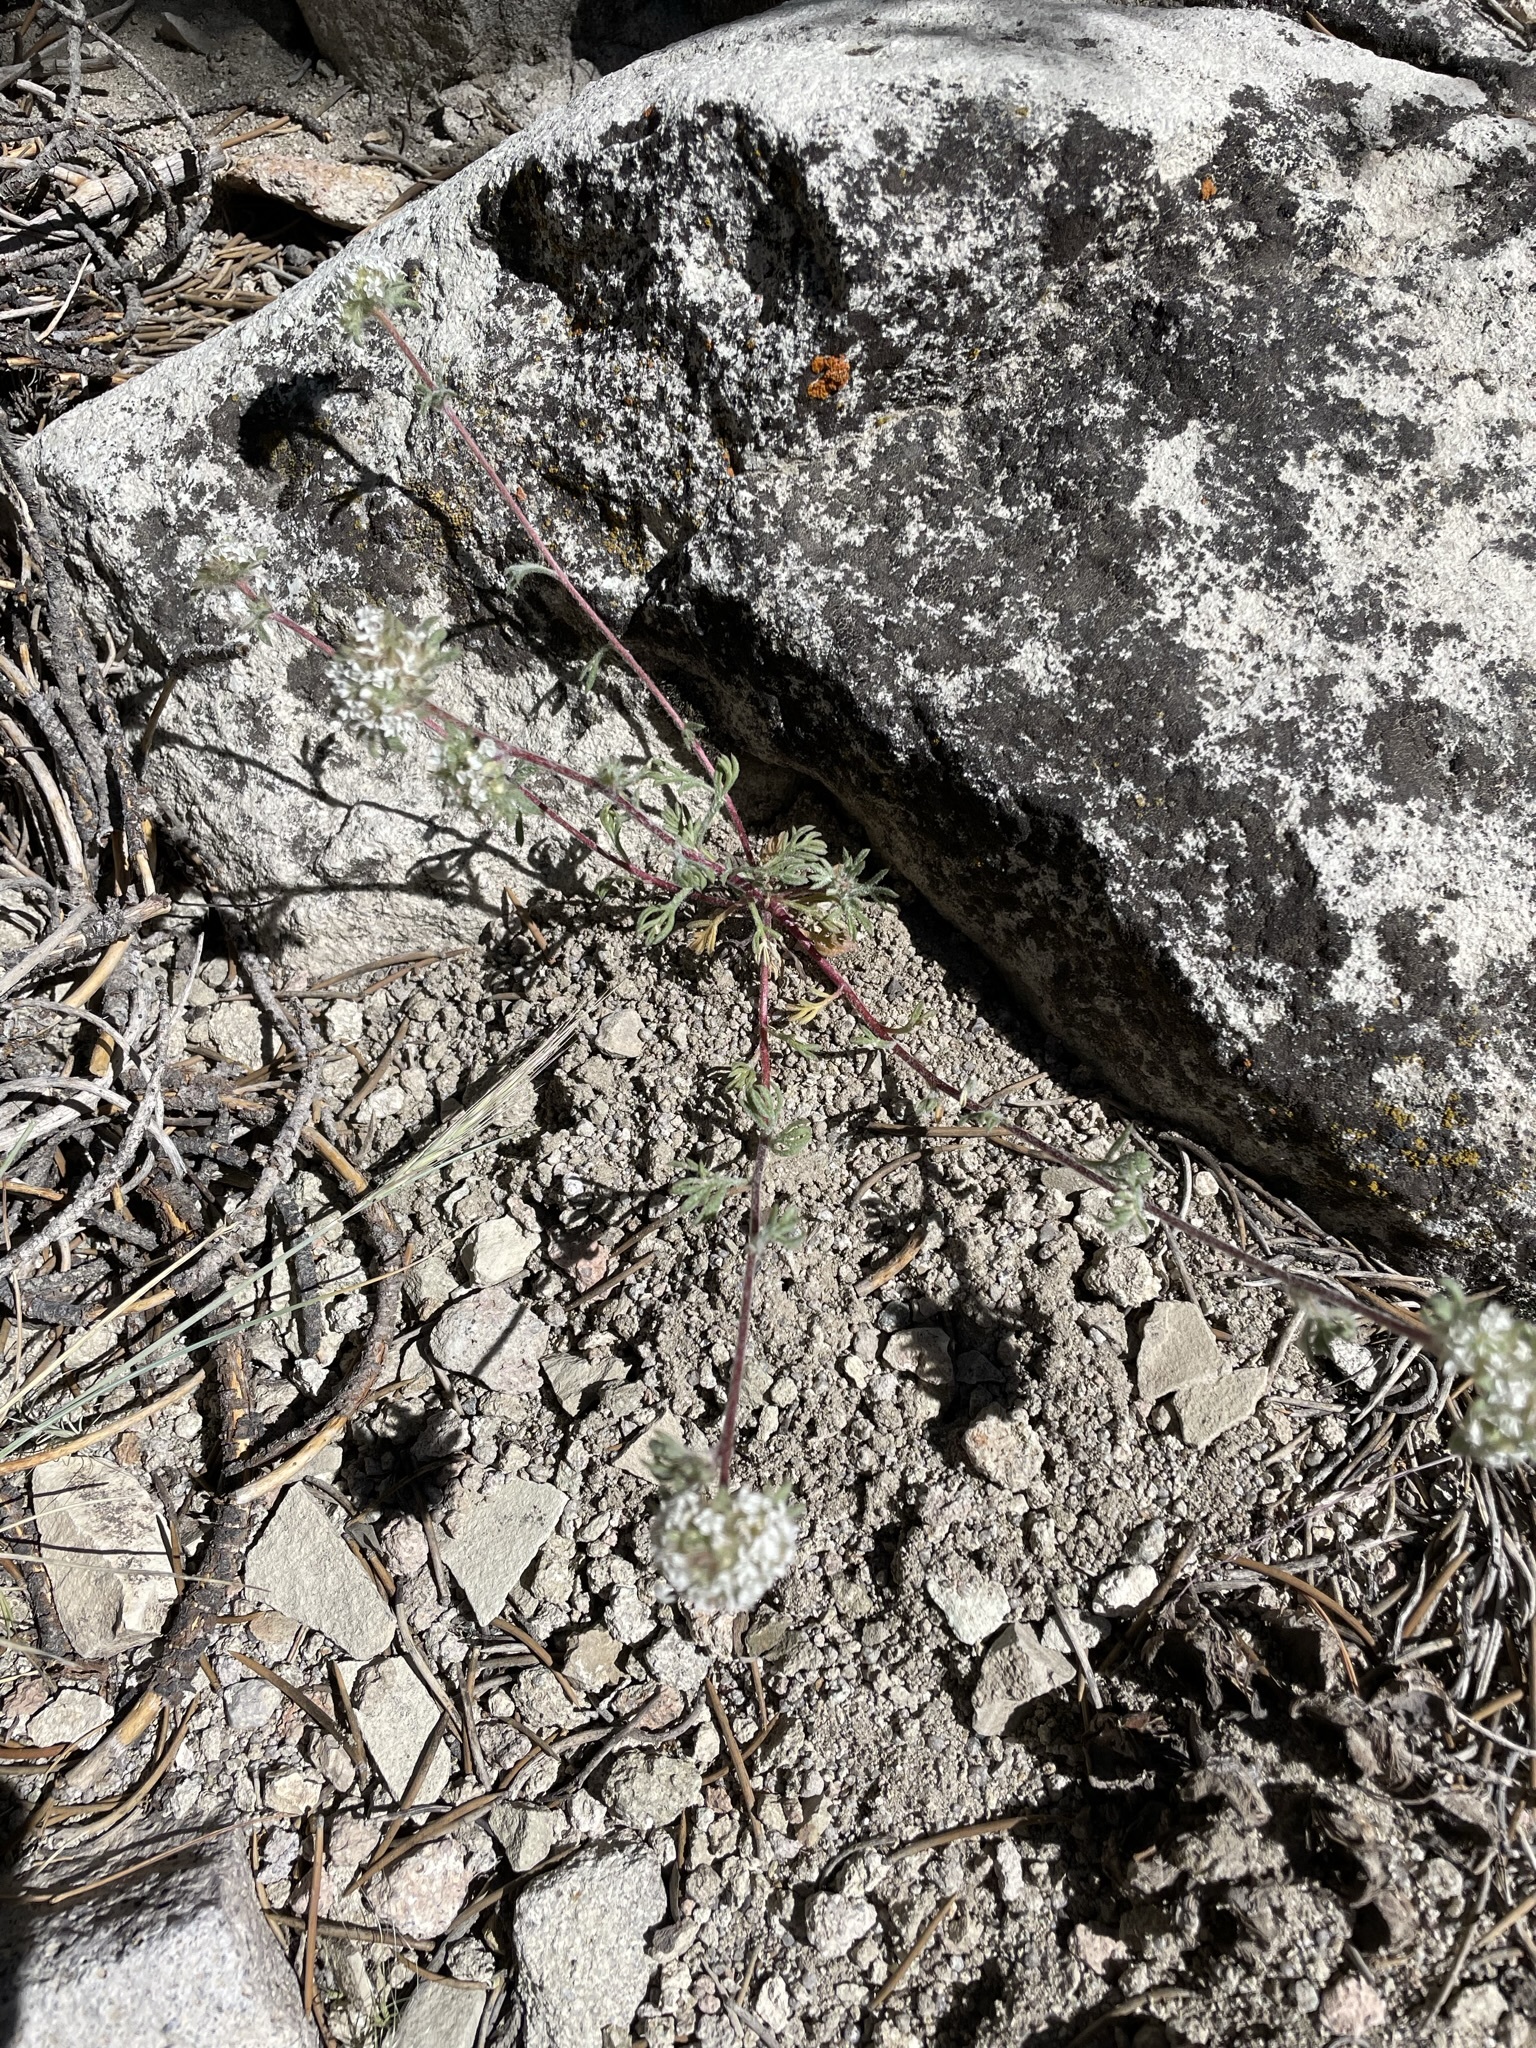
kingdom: Plantae
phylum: Tracheophyta
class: Magnoliopsida
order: Ericales
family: Polemoniaceae
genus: Ipomopsis
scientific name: Ipomopsis congesta
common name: Ball-head gilia
